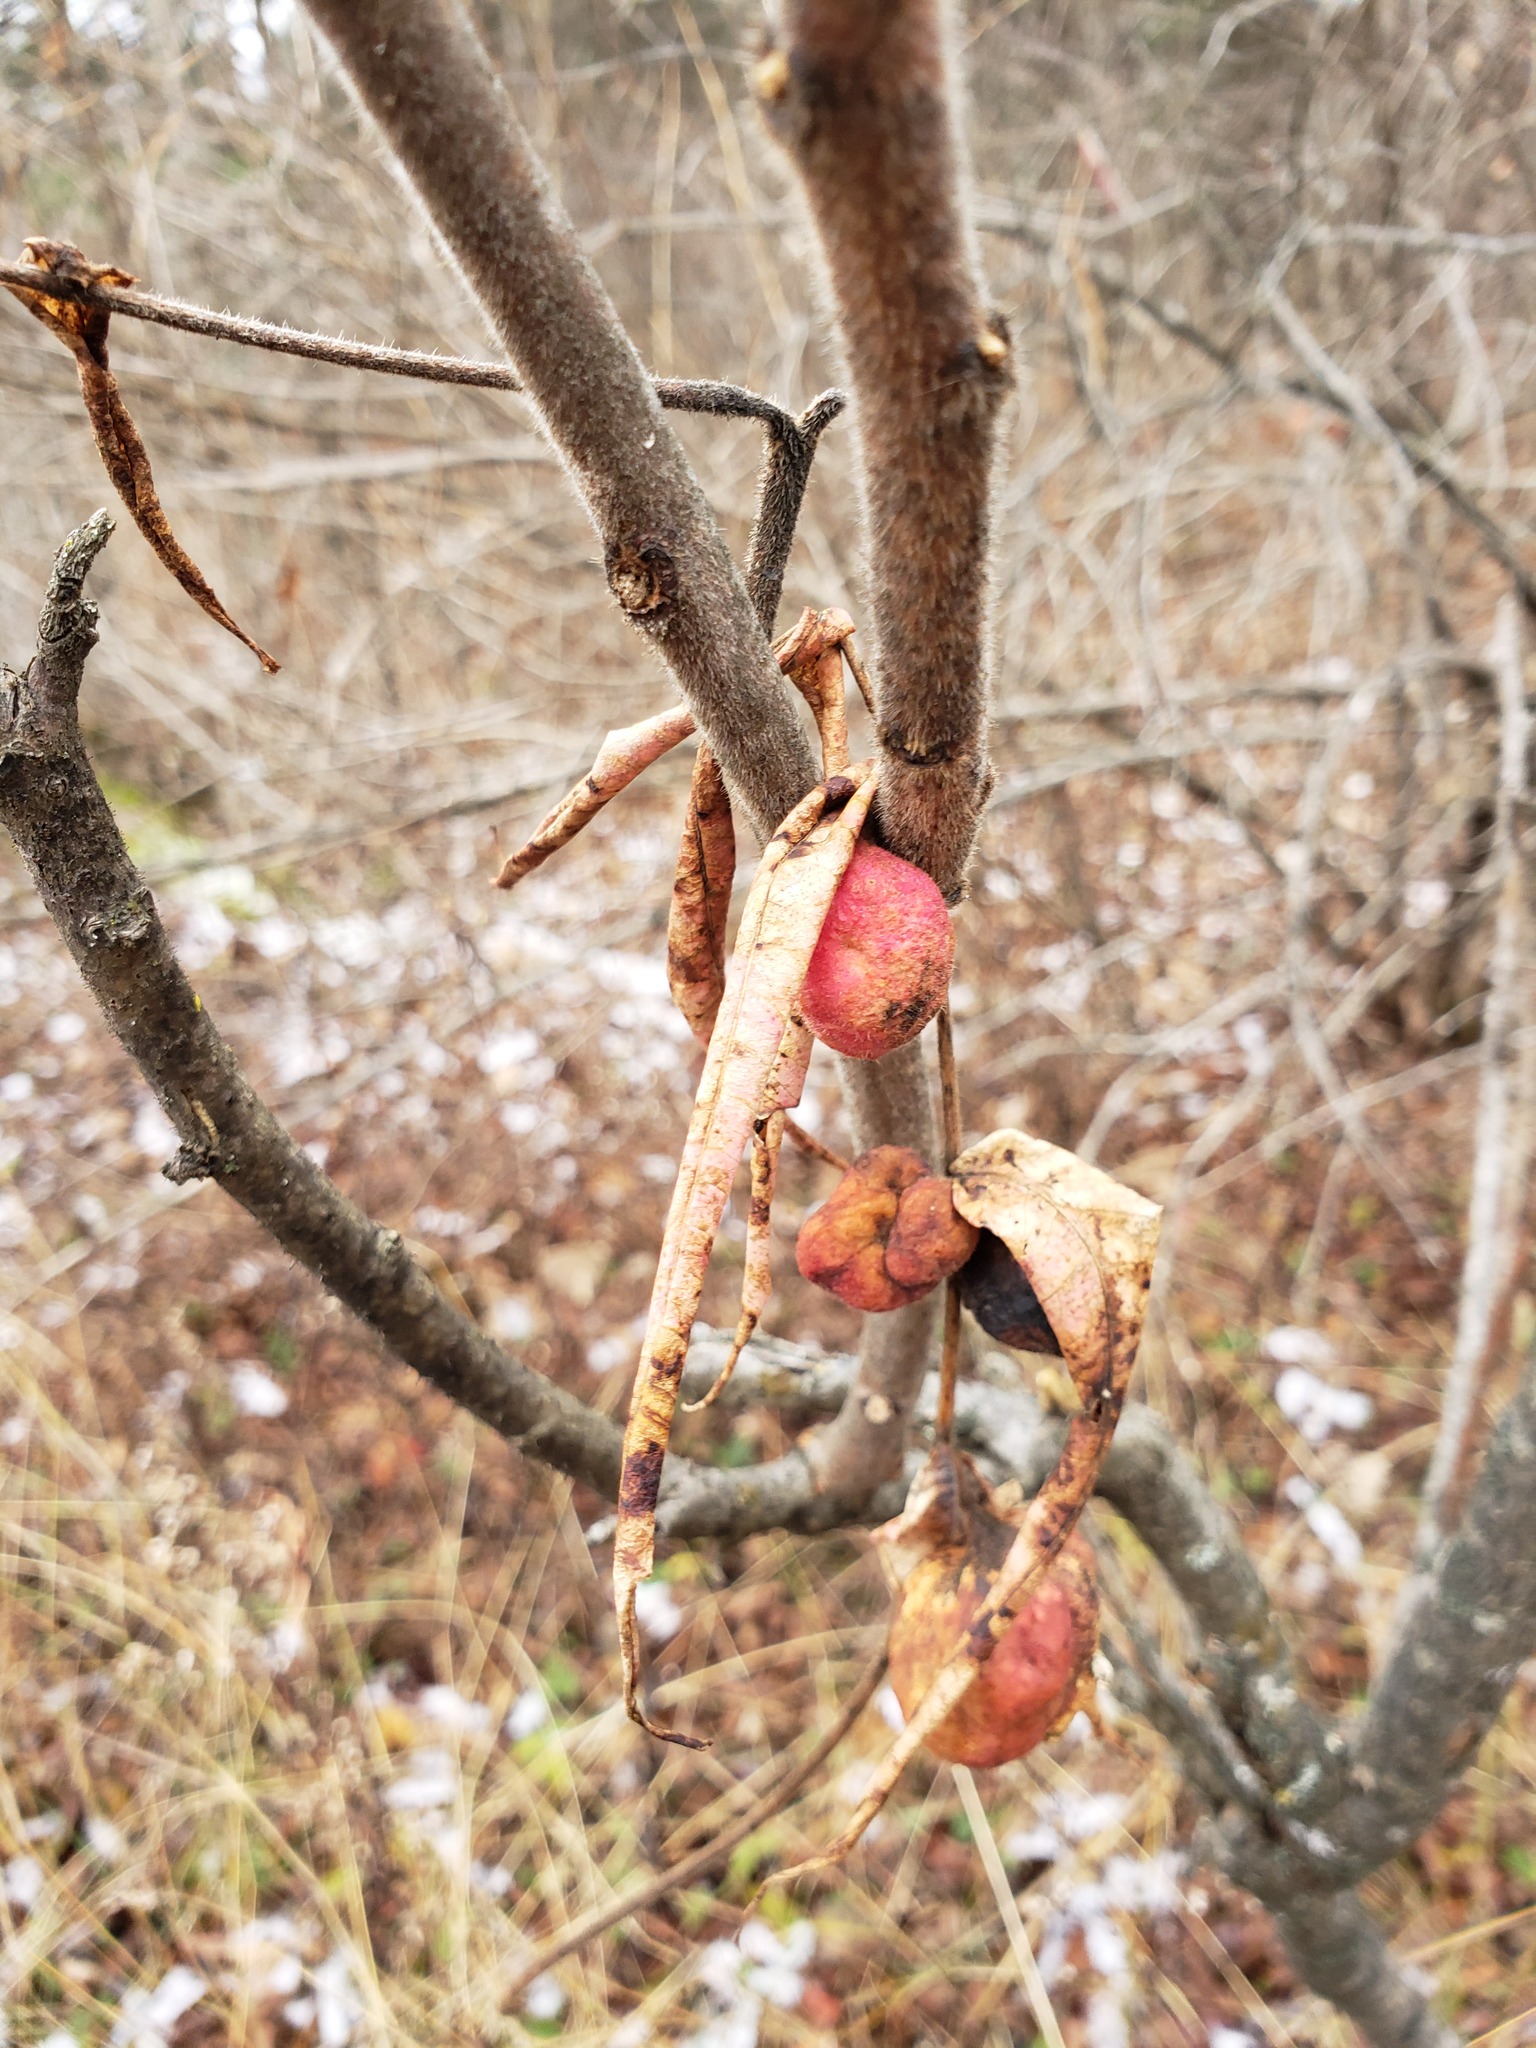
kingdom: Animalia
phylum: Arthropoda
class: Insecta
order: Hemiptera
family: Aphididae
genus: Melaphis
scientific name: Melaphis rhois
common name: Sumac gall aphid
